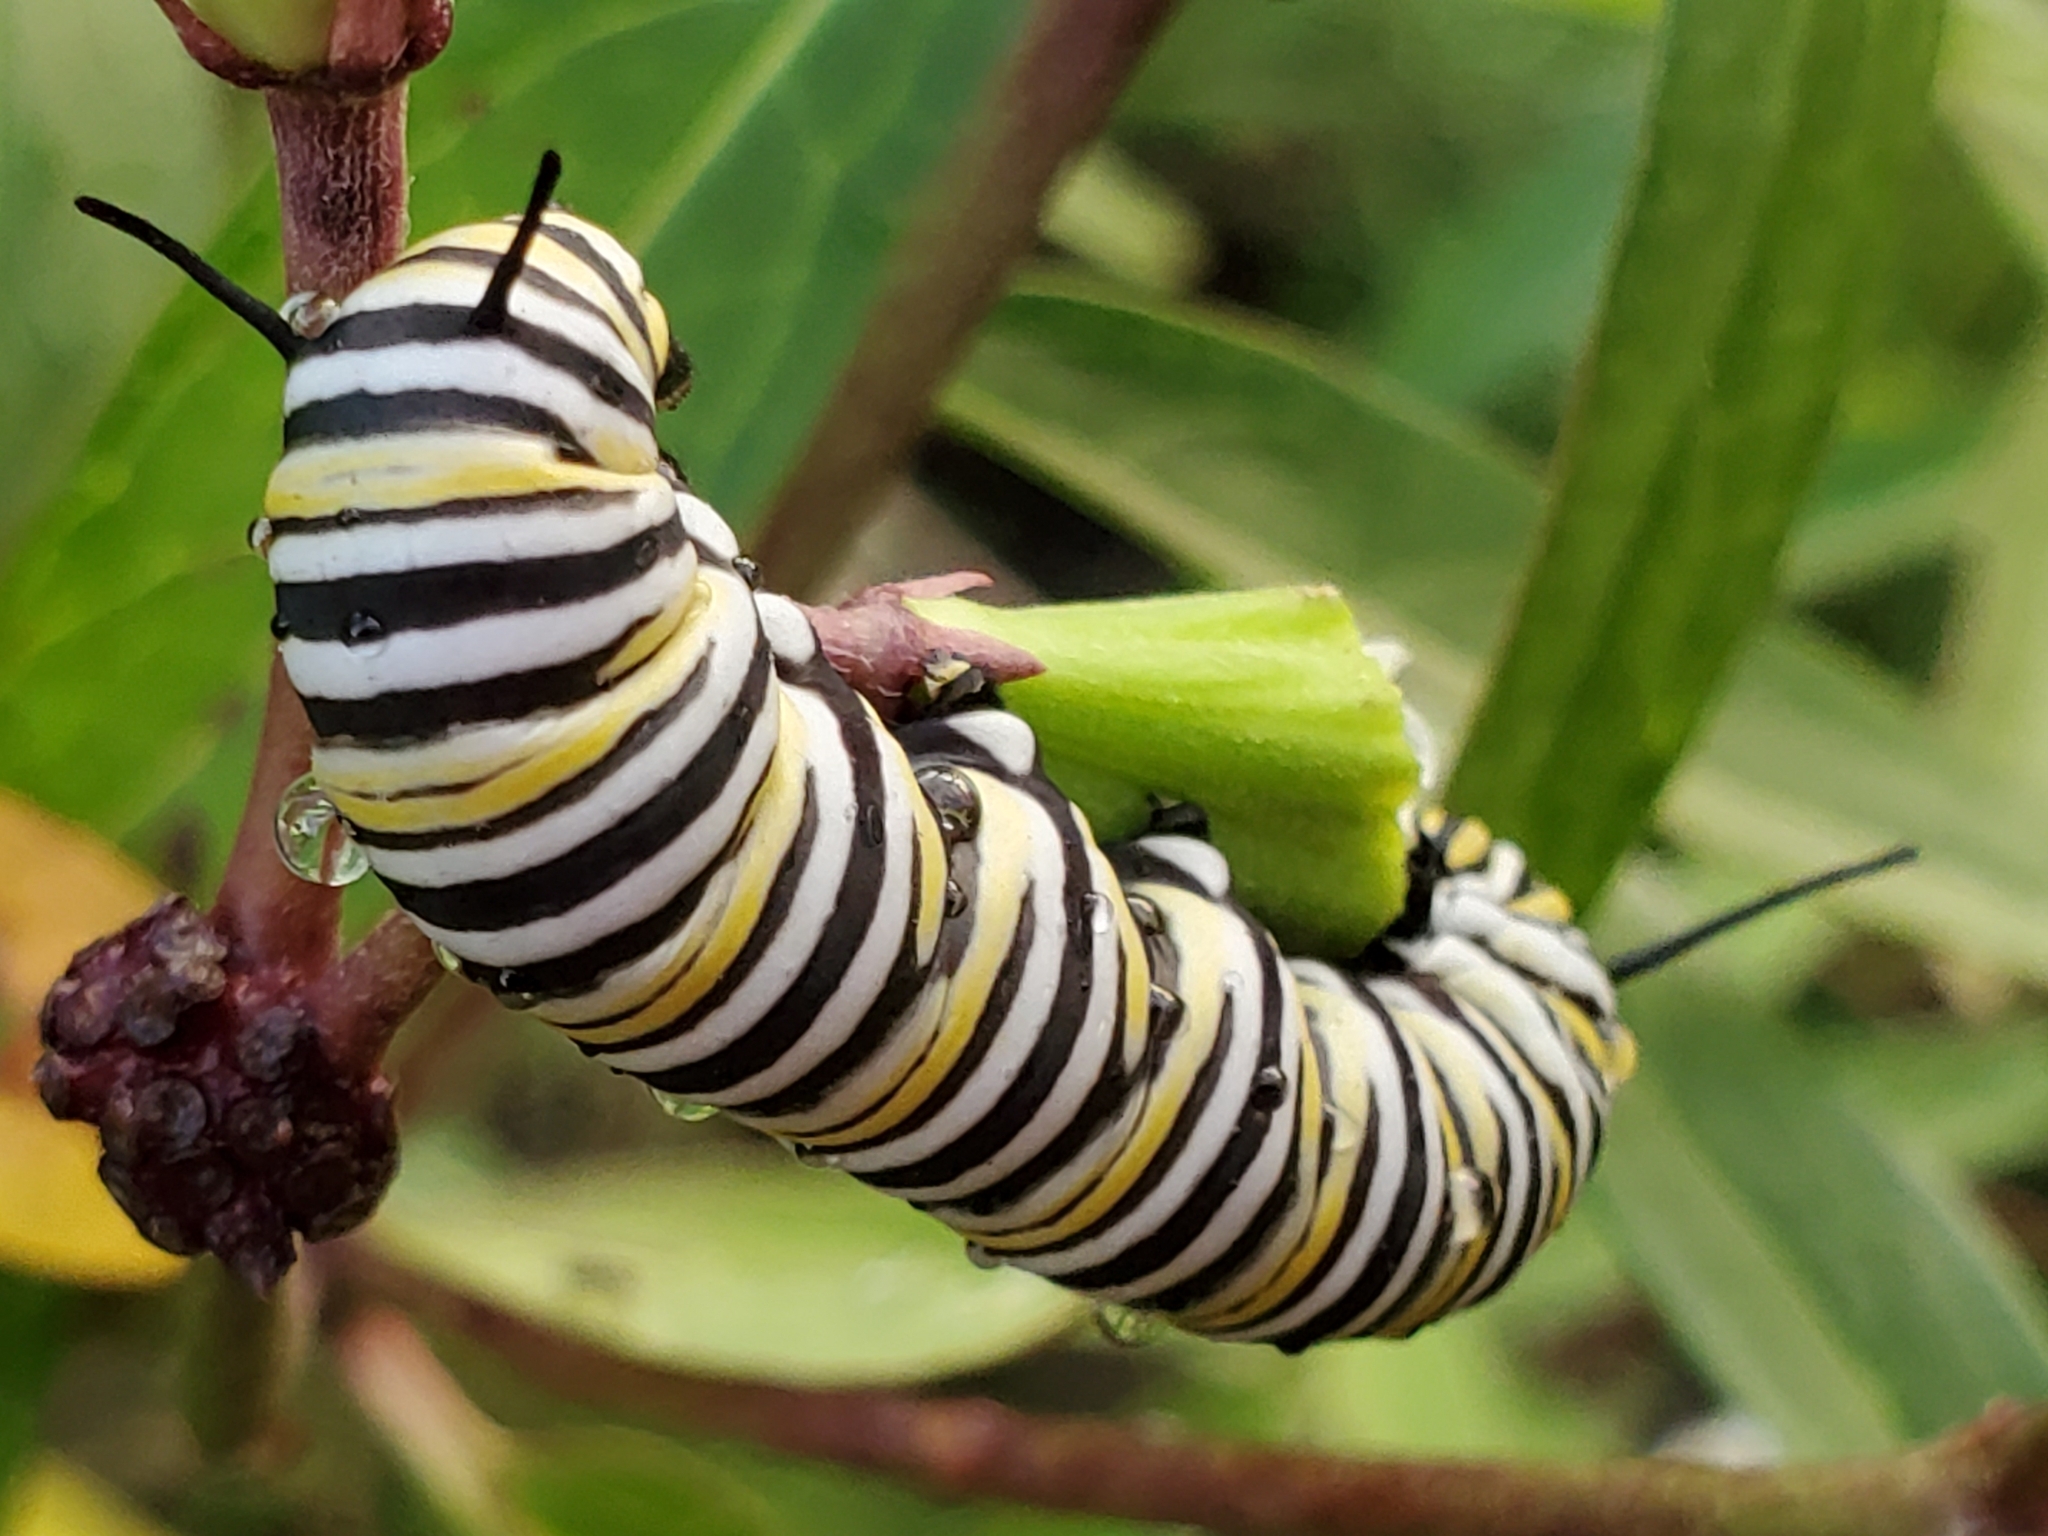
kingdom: Animalia
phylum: Arthropoda
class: Insecta
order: Lepidoptera
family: Nymphalidae
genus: Danaus
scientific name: Danaus plexippus
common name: Monarch
